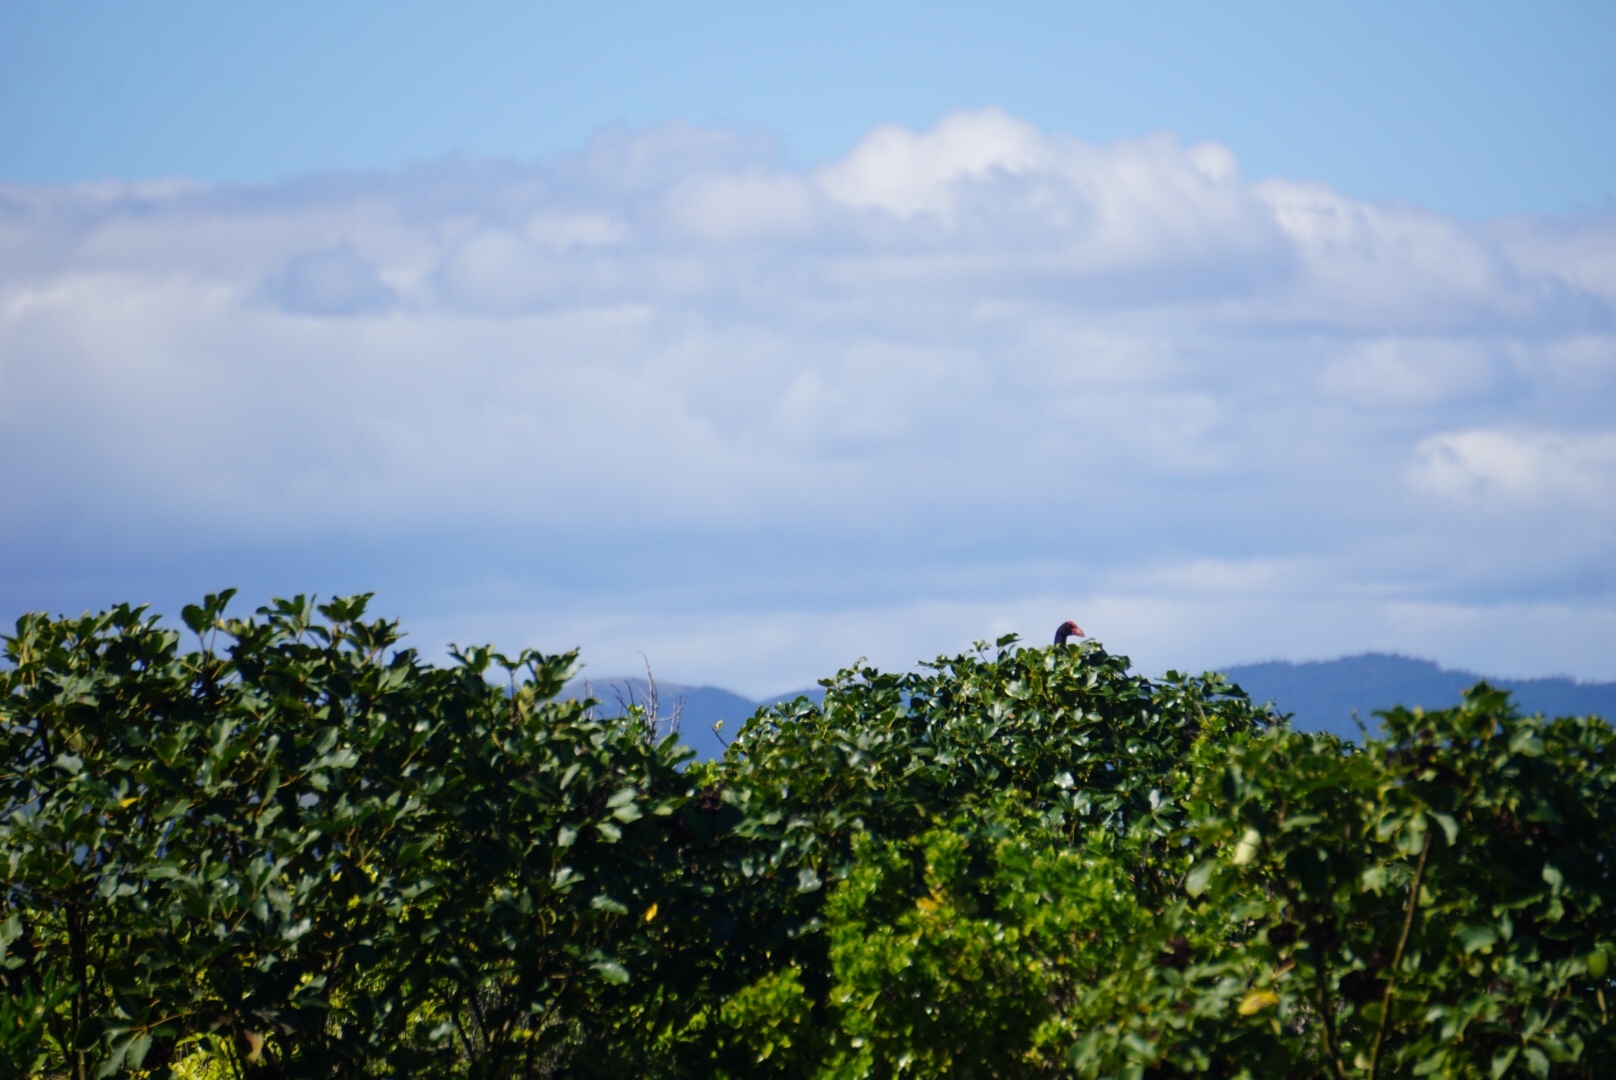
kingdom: Animalia
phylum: Chordata
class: Aves
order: Gruiformes
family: Rallidae
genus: Porphyrio
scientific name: Porphyrio melanotus
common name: Australasian swamphen
